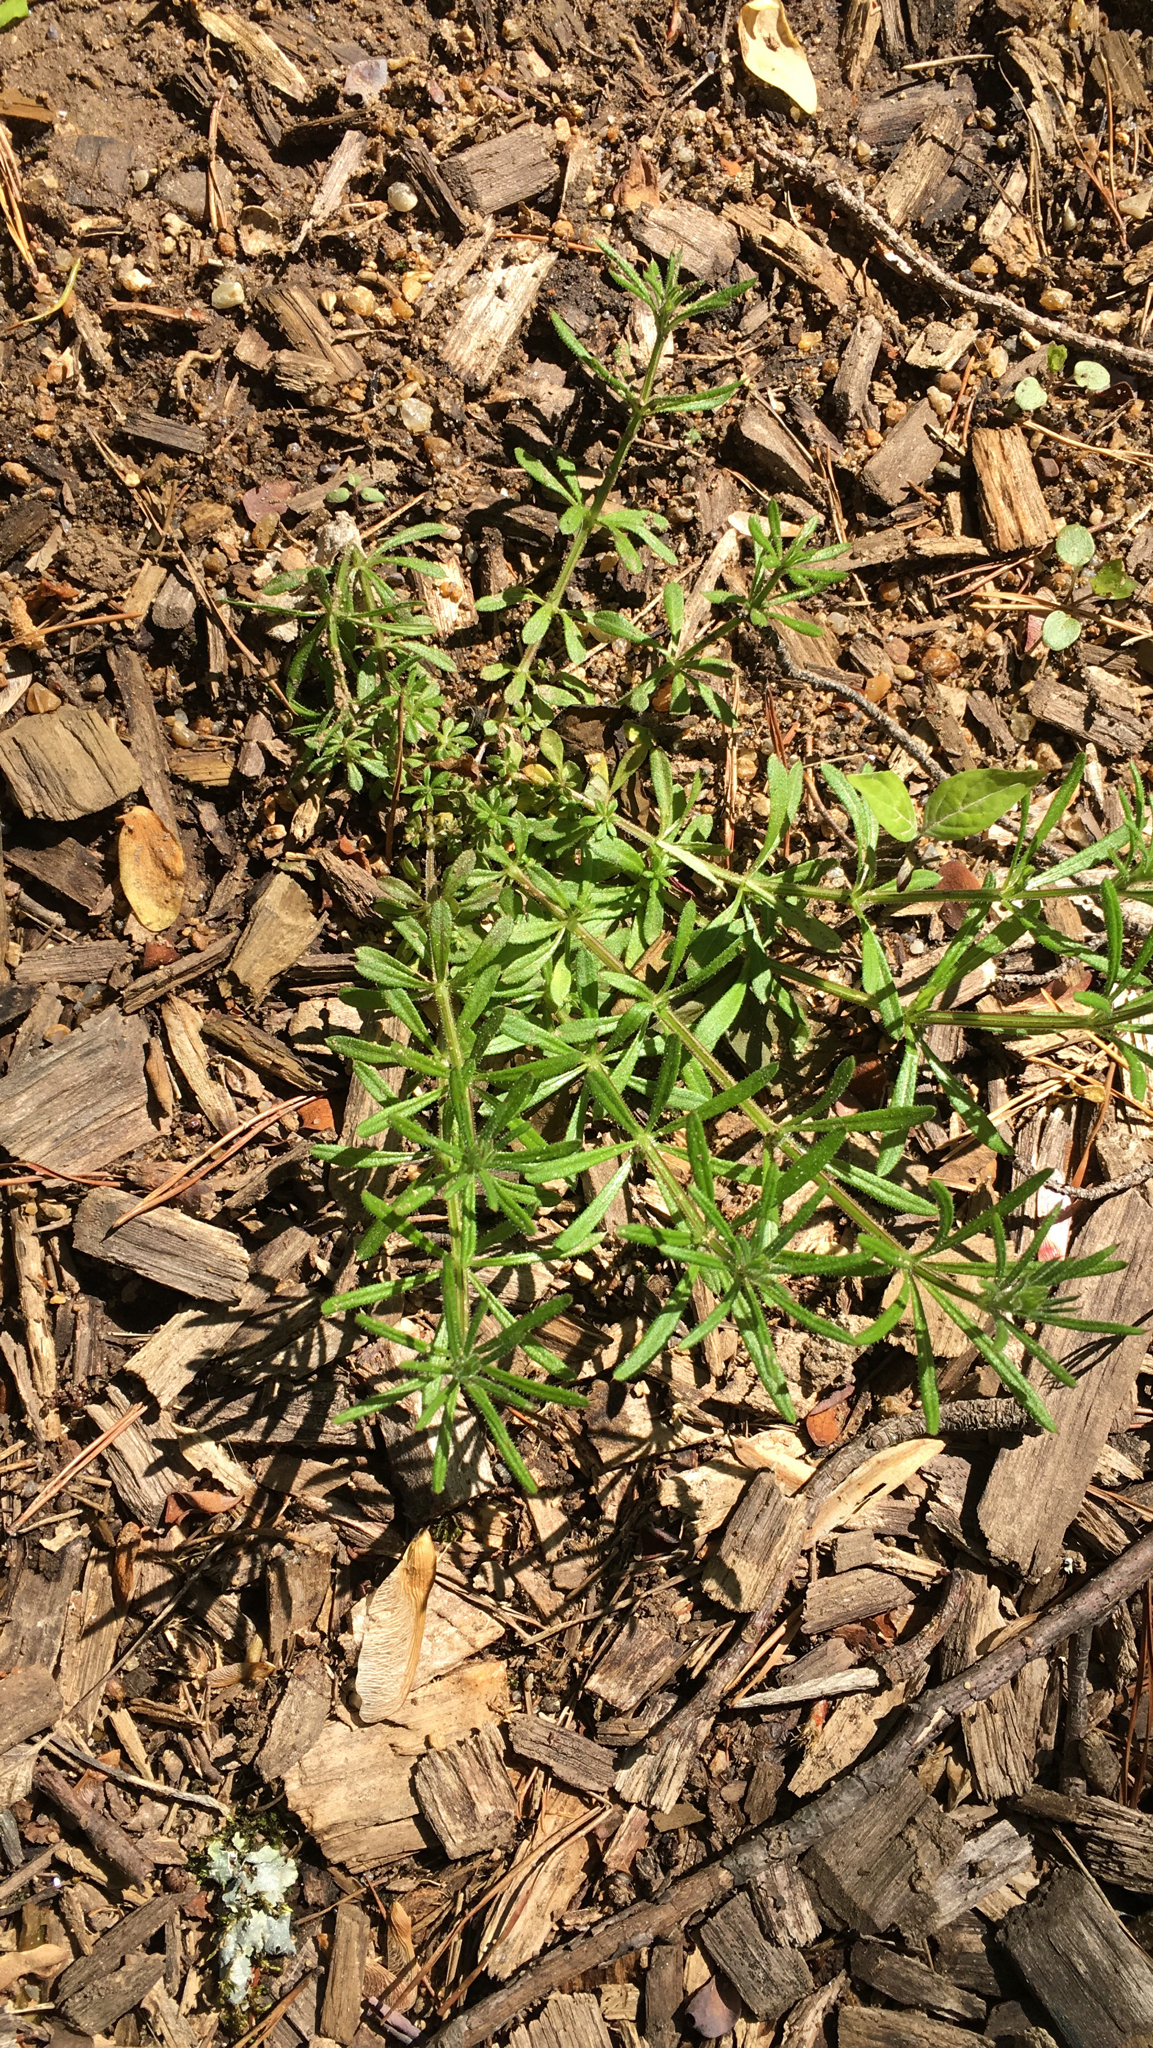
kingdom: Plantae
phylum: Tracheophyta
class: Magnoliopsida
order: Gentianales
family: Rubiaceae
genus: Galium
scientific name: Galium aparine
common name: Cleavers
